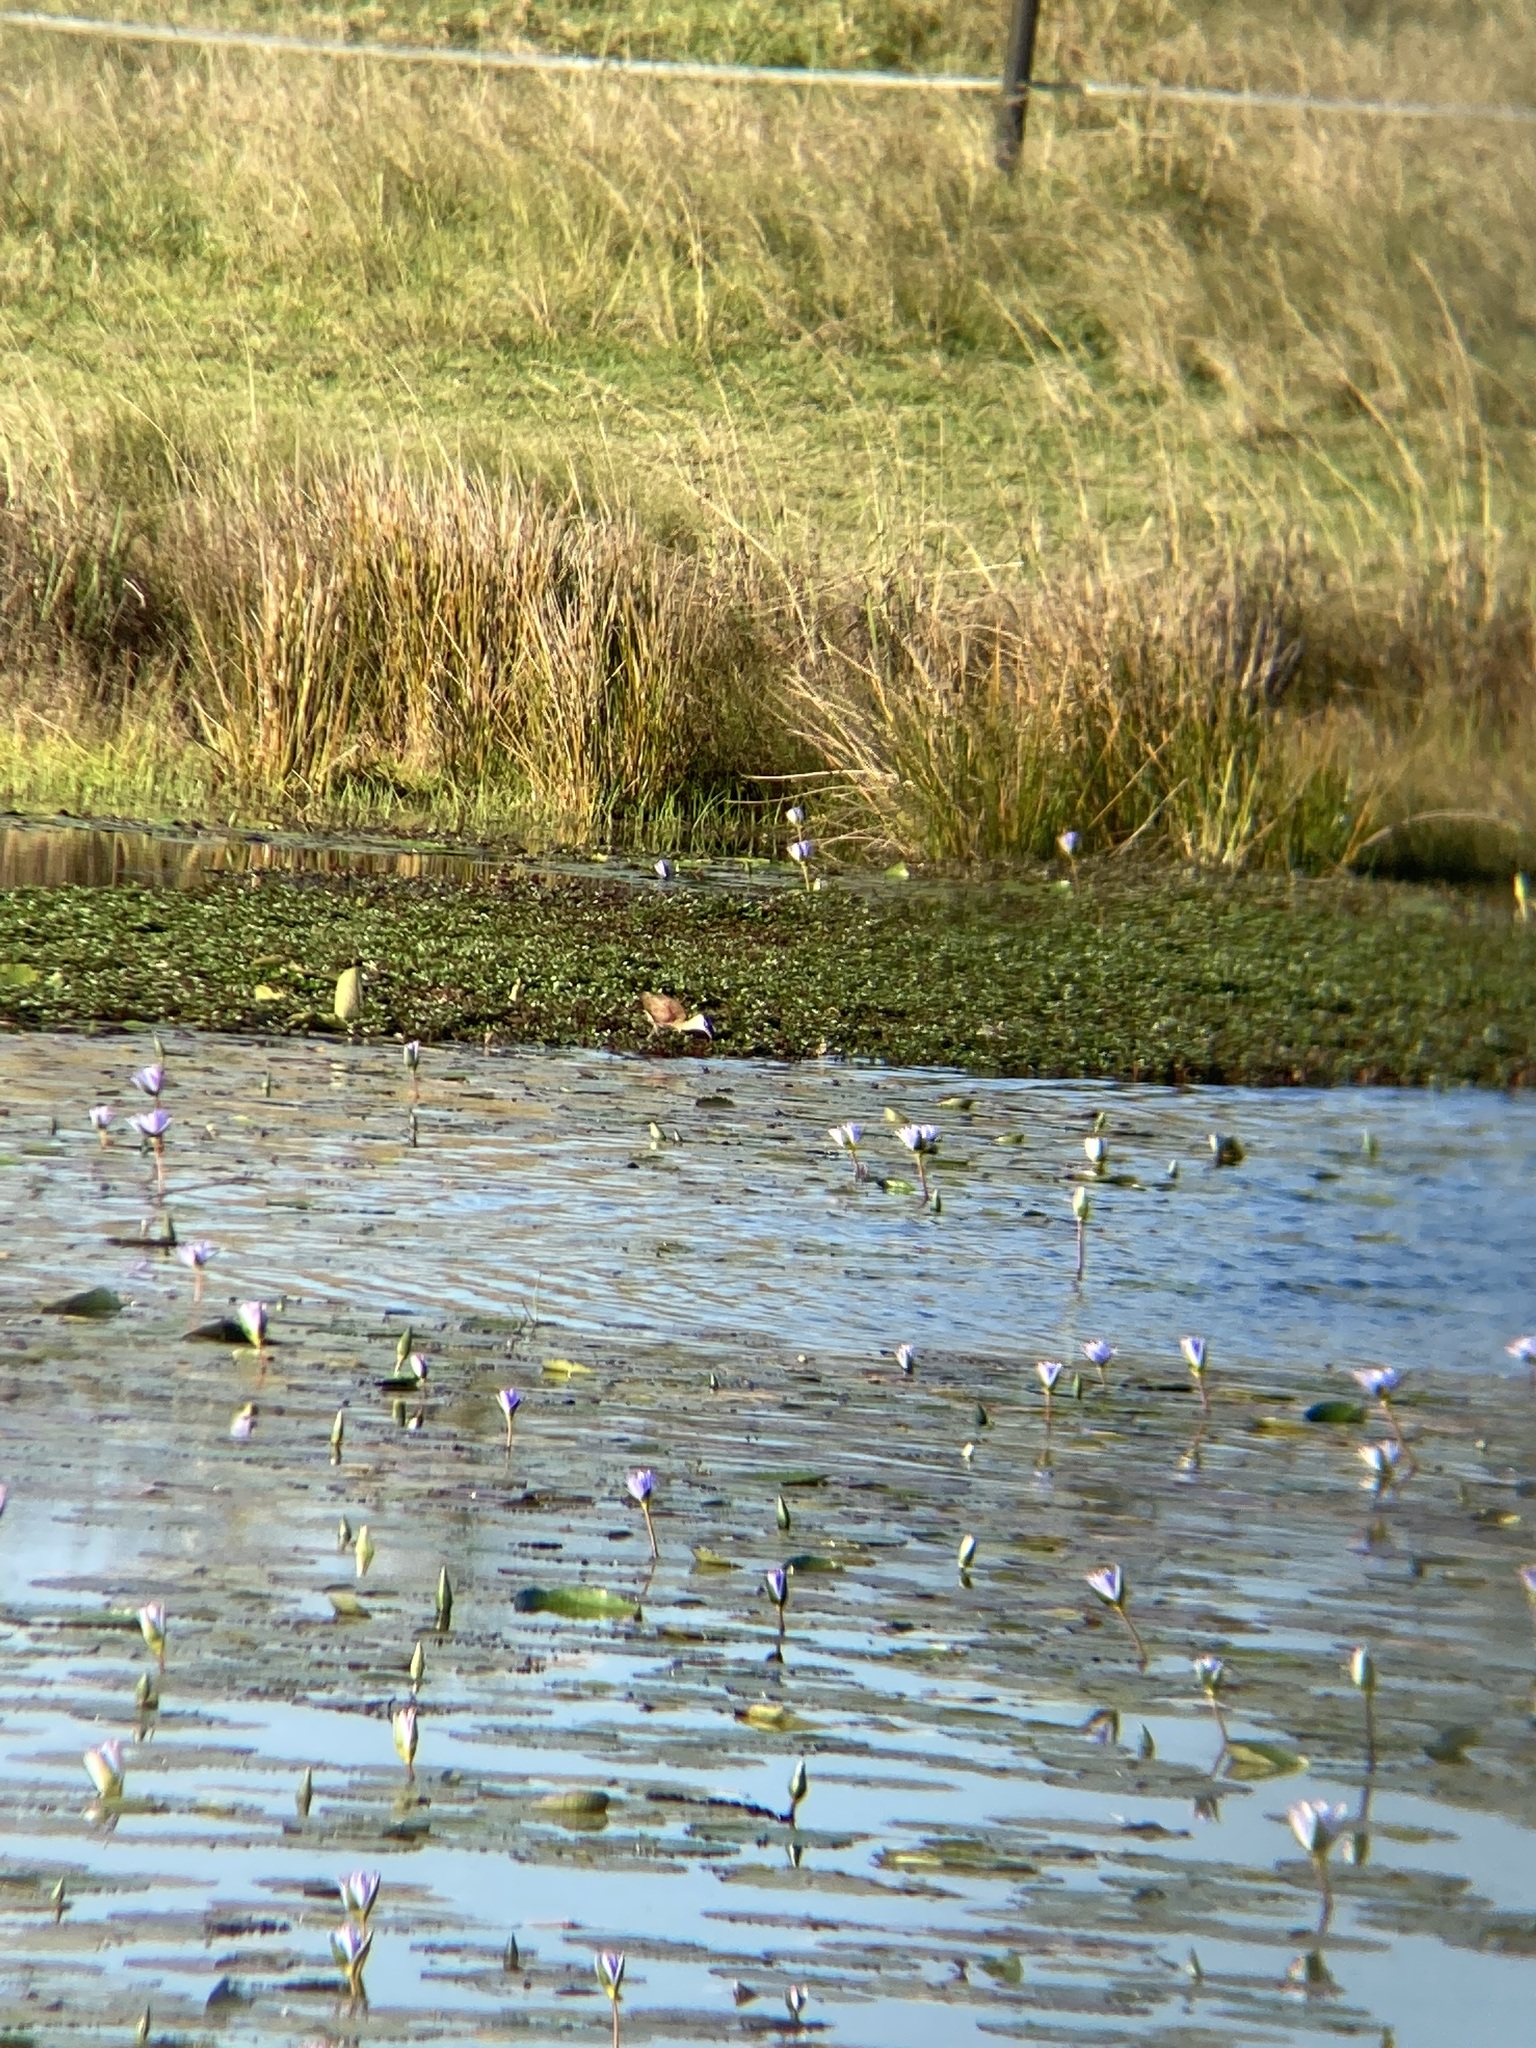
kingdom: Animalia
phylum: Chordata
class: Aves
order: Charadriiformes
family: Jacanidae
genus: Actophilornis
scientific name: Actophilornis africanus
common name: African jacana
